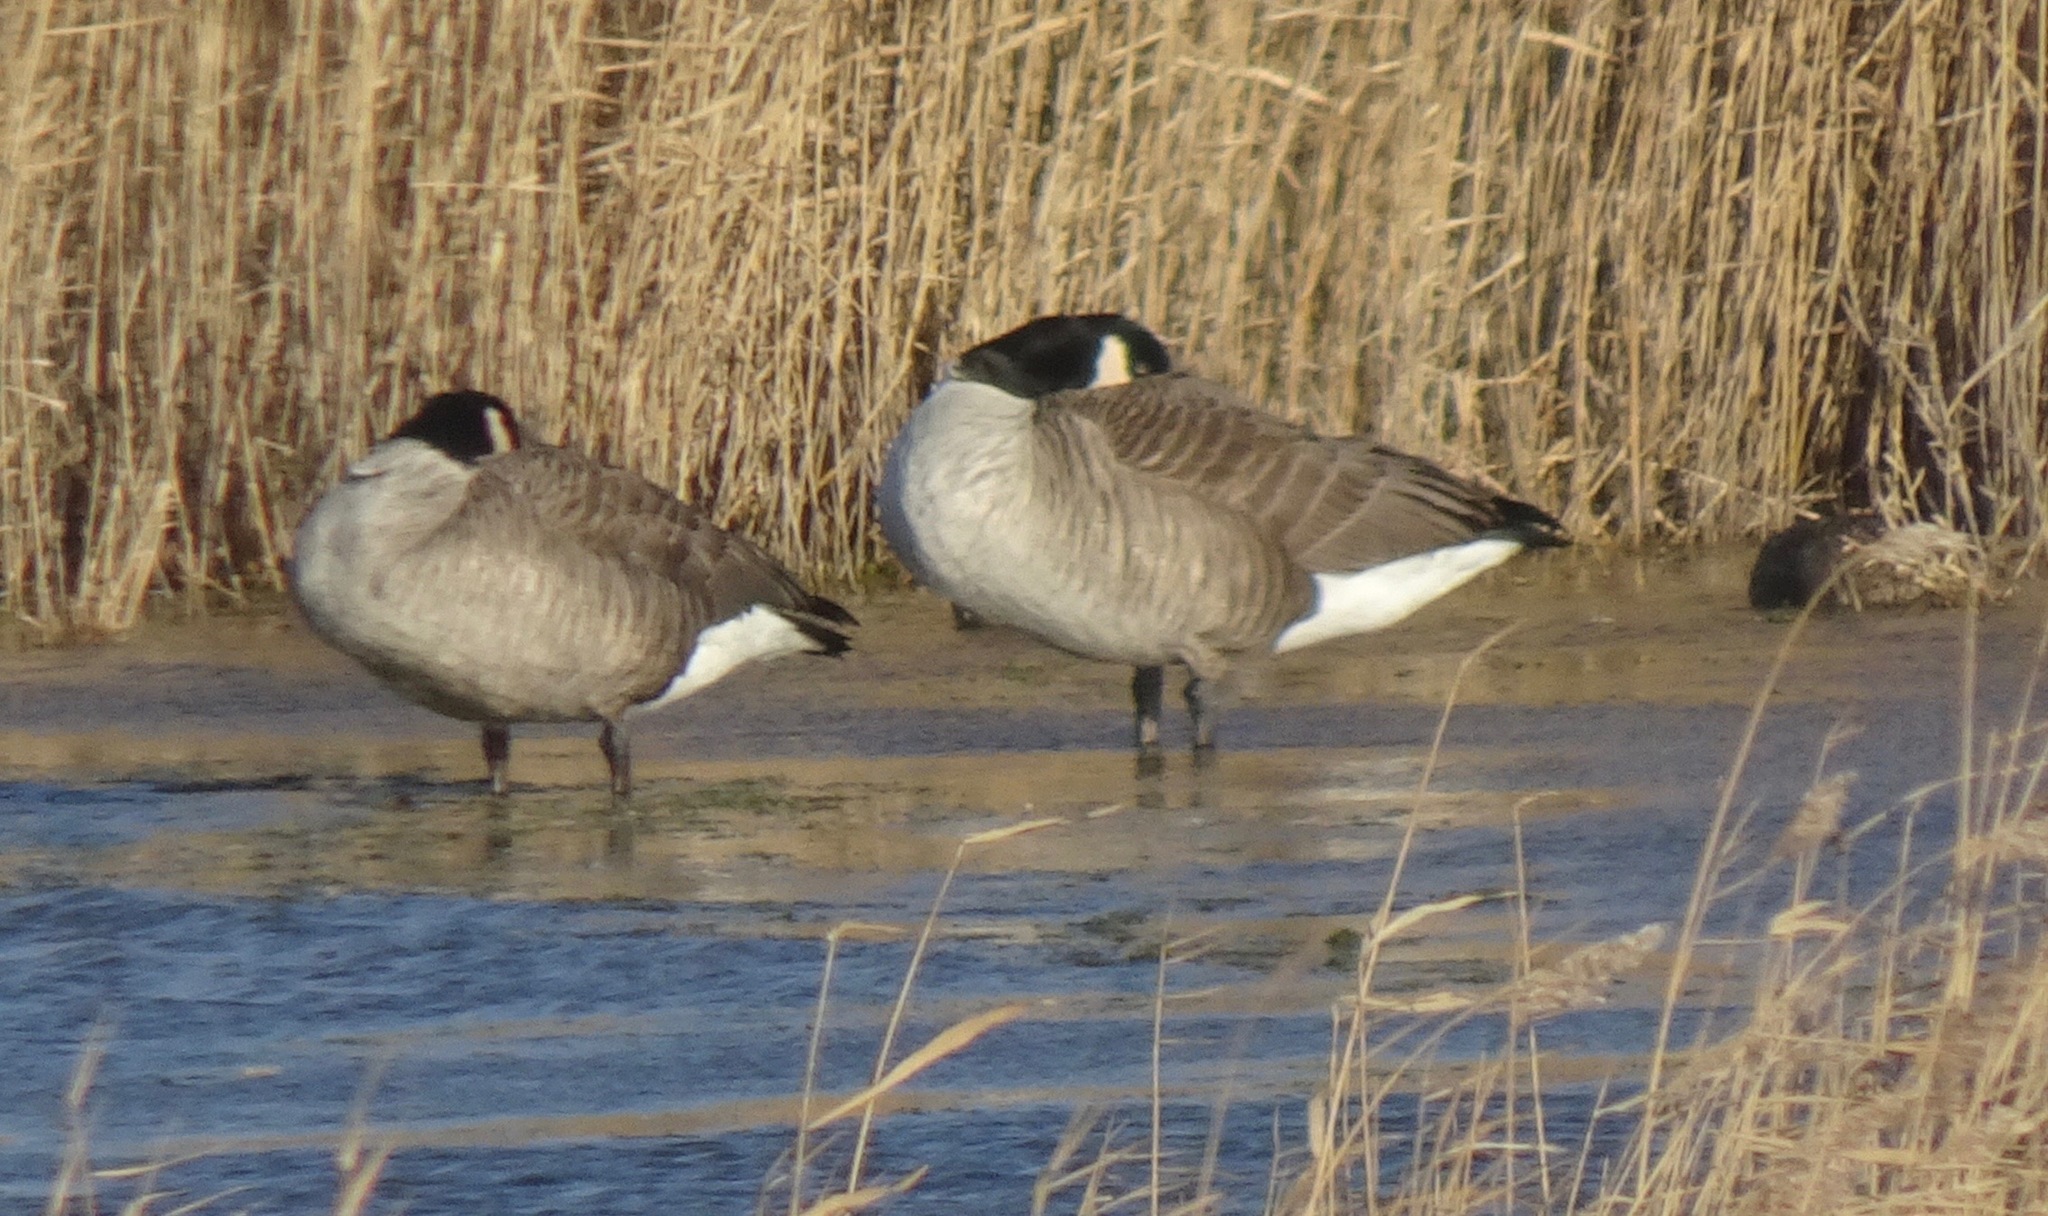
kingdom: Animalia
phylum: Chordata
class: Aves
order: Anseriformes
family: Anatidae
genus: Branta
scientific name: Branta canadensis
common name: Canada goose
